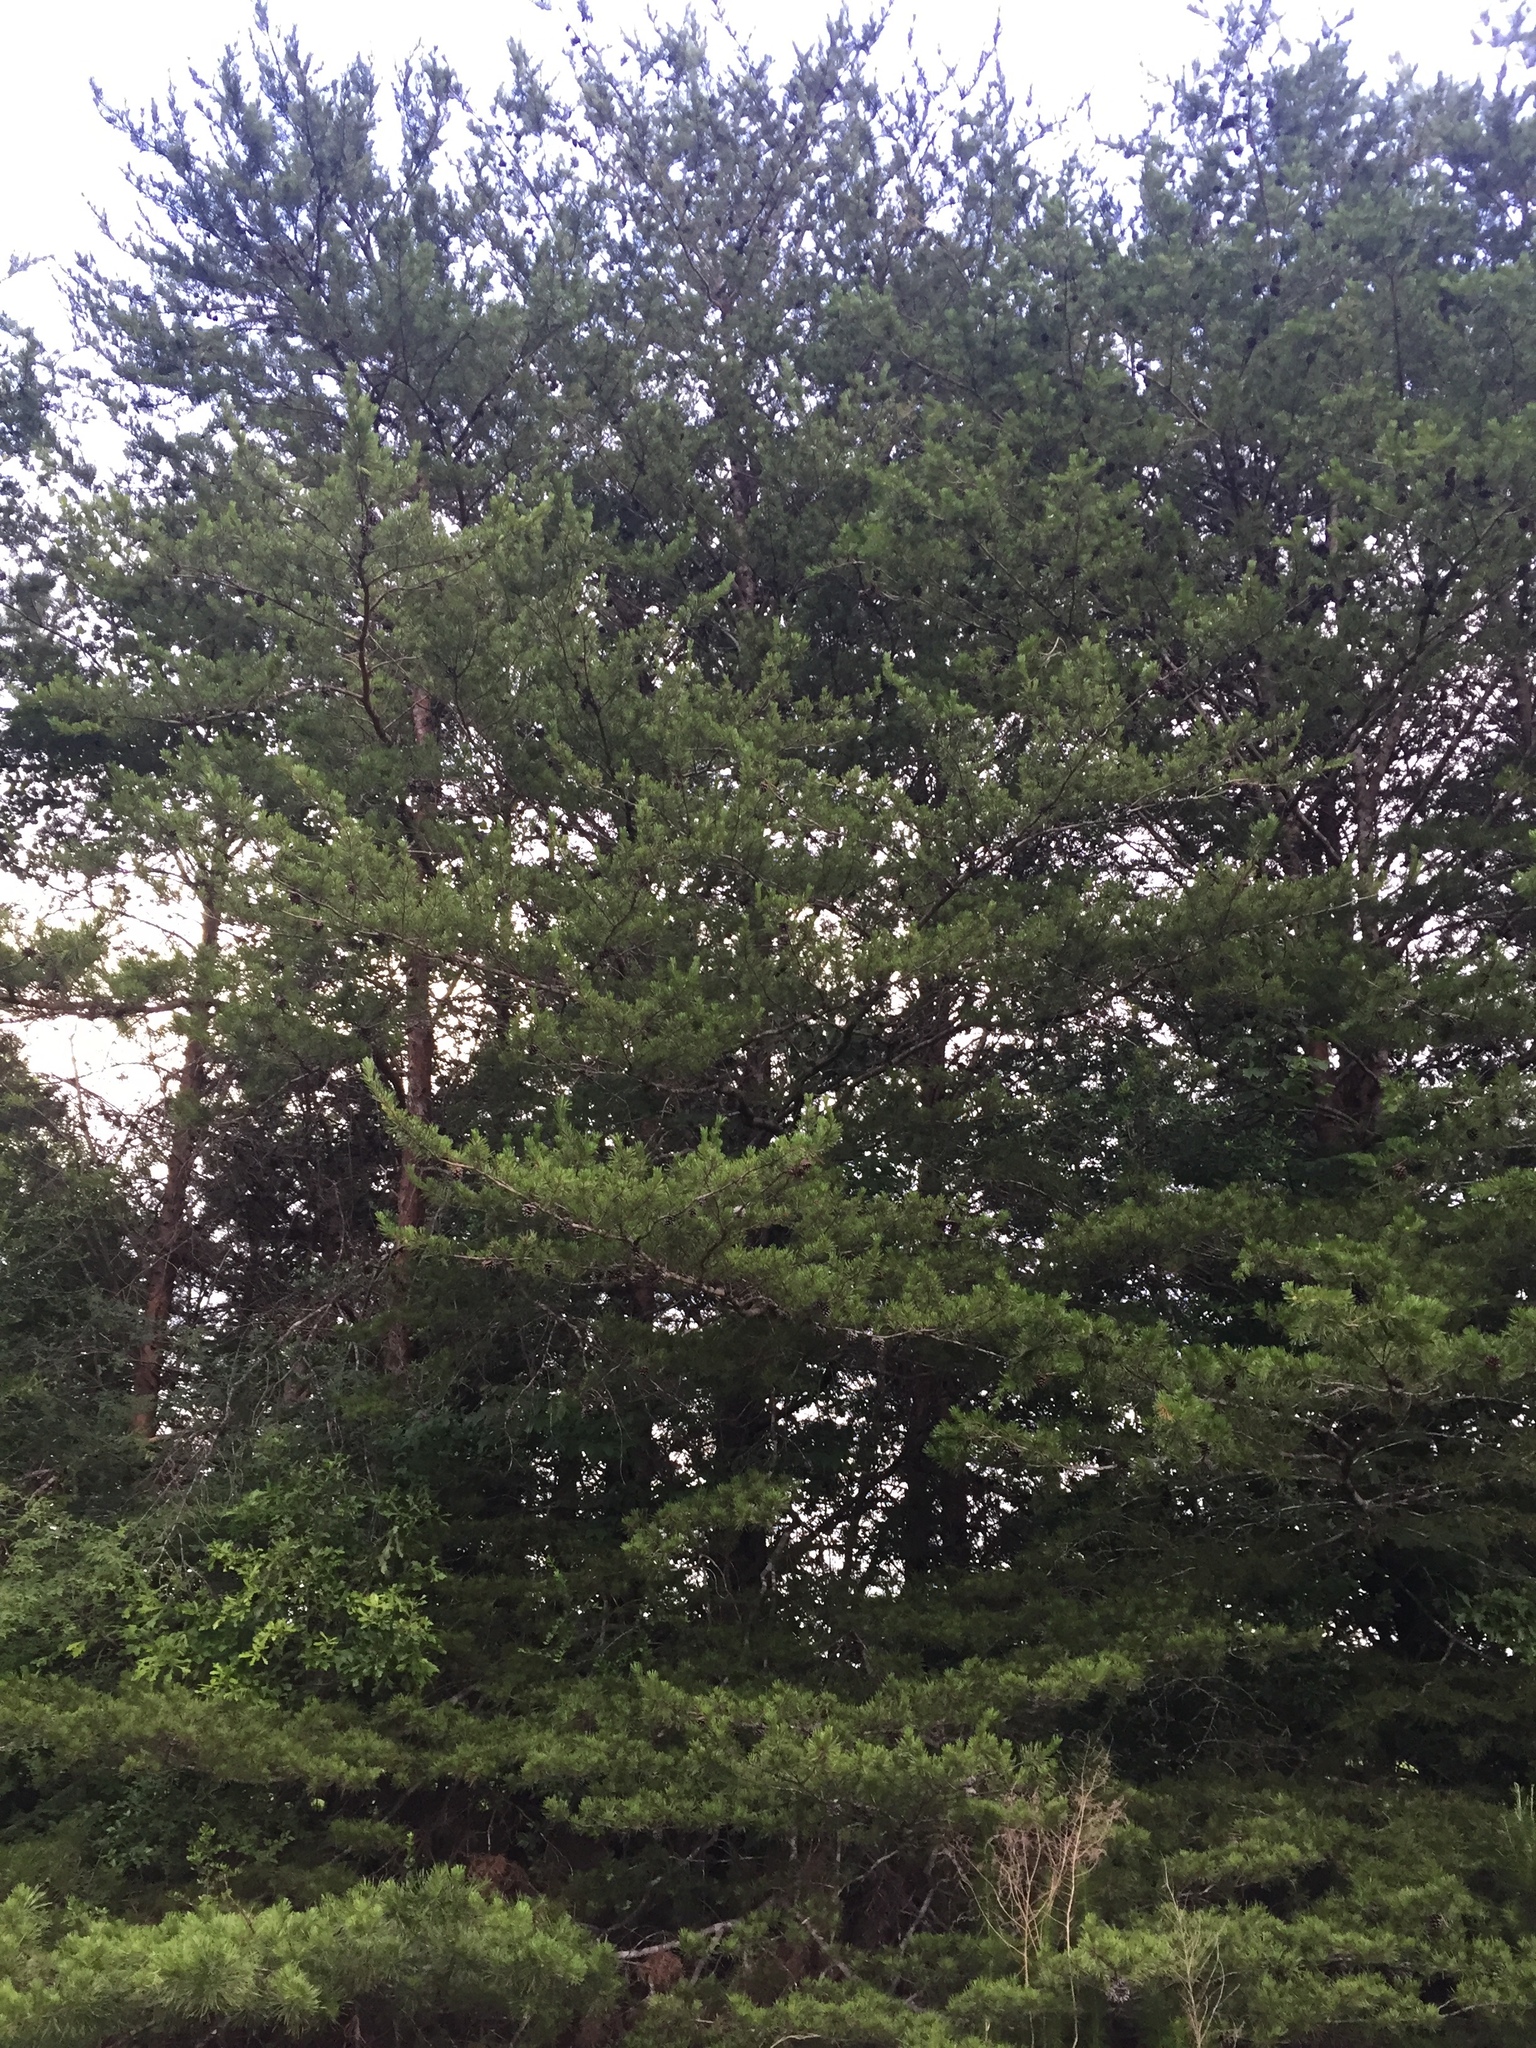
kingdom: Plantae
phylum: Tracheophyta
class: Pinopsida
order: Pinales
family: Pinaceae
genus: Pinus
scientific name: Pinus virginiana
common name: Scrub pine
